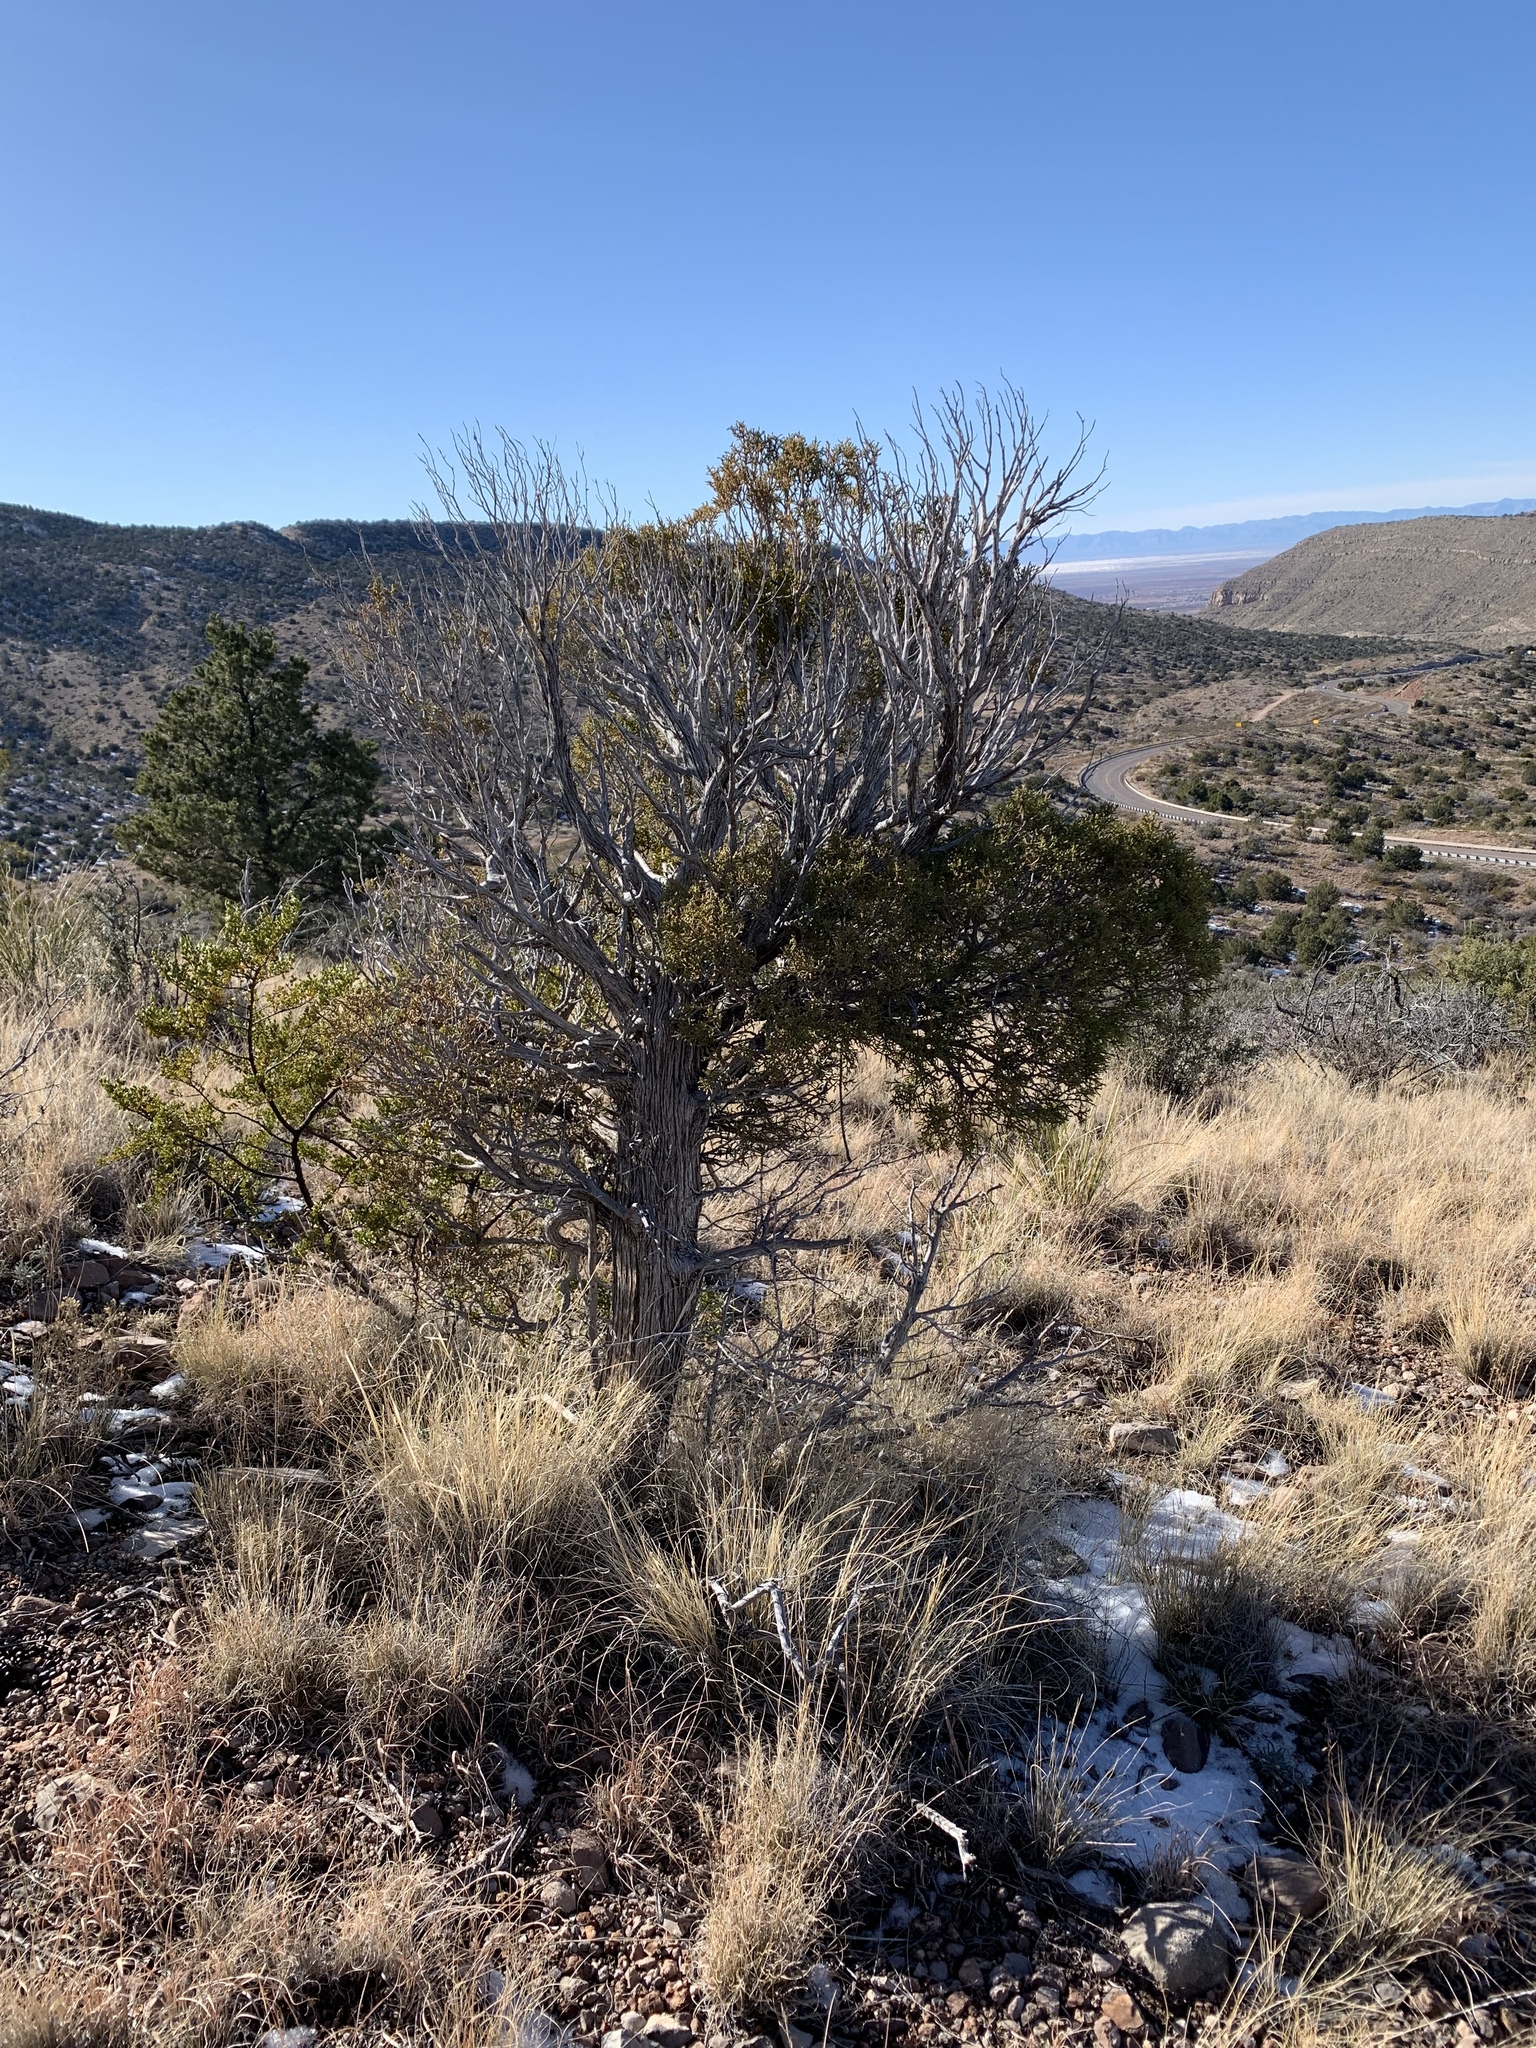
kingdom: Plantae
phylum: Tracheophyta
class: Pinopsida
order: Pinales
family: Cupressaceae
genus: Juniperus
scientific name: Juniperus monosperma
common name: One-seed juniper
